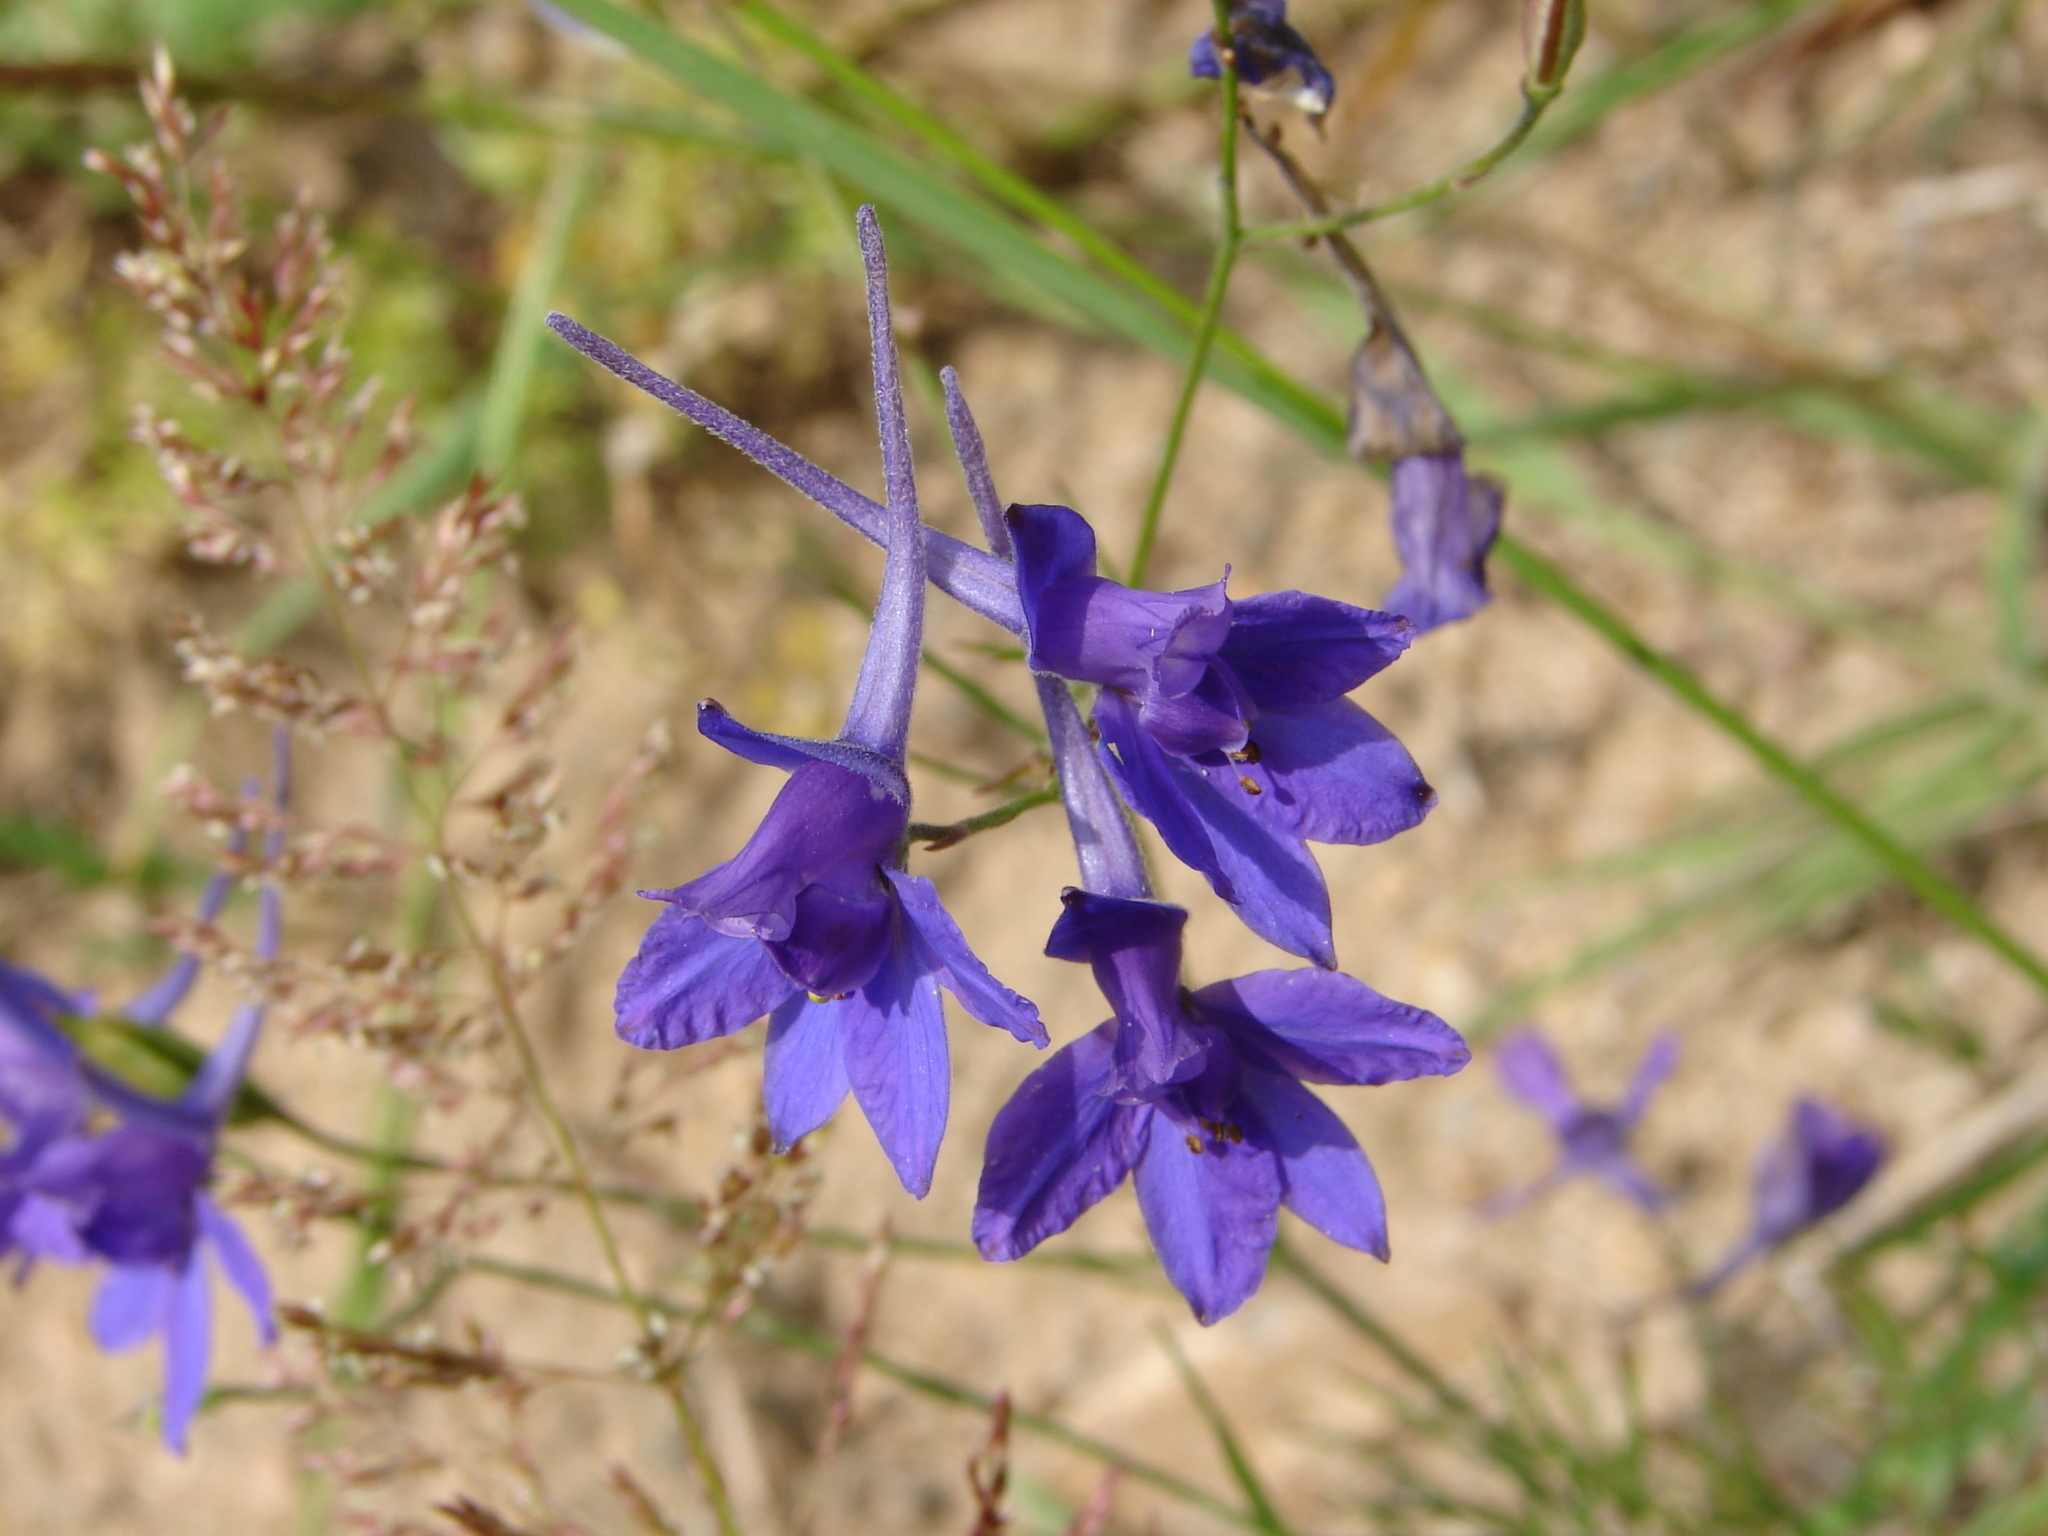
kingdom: Plantae
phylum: Tracheophyta
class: Magnoliopsida
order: Ranunculales
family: Ranunculaceae
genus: Delphinium
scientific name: Delphinium consolida
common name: Branching larkspur
